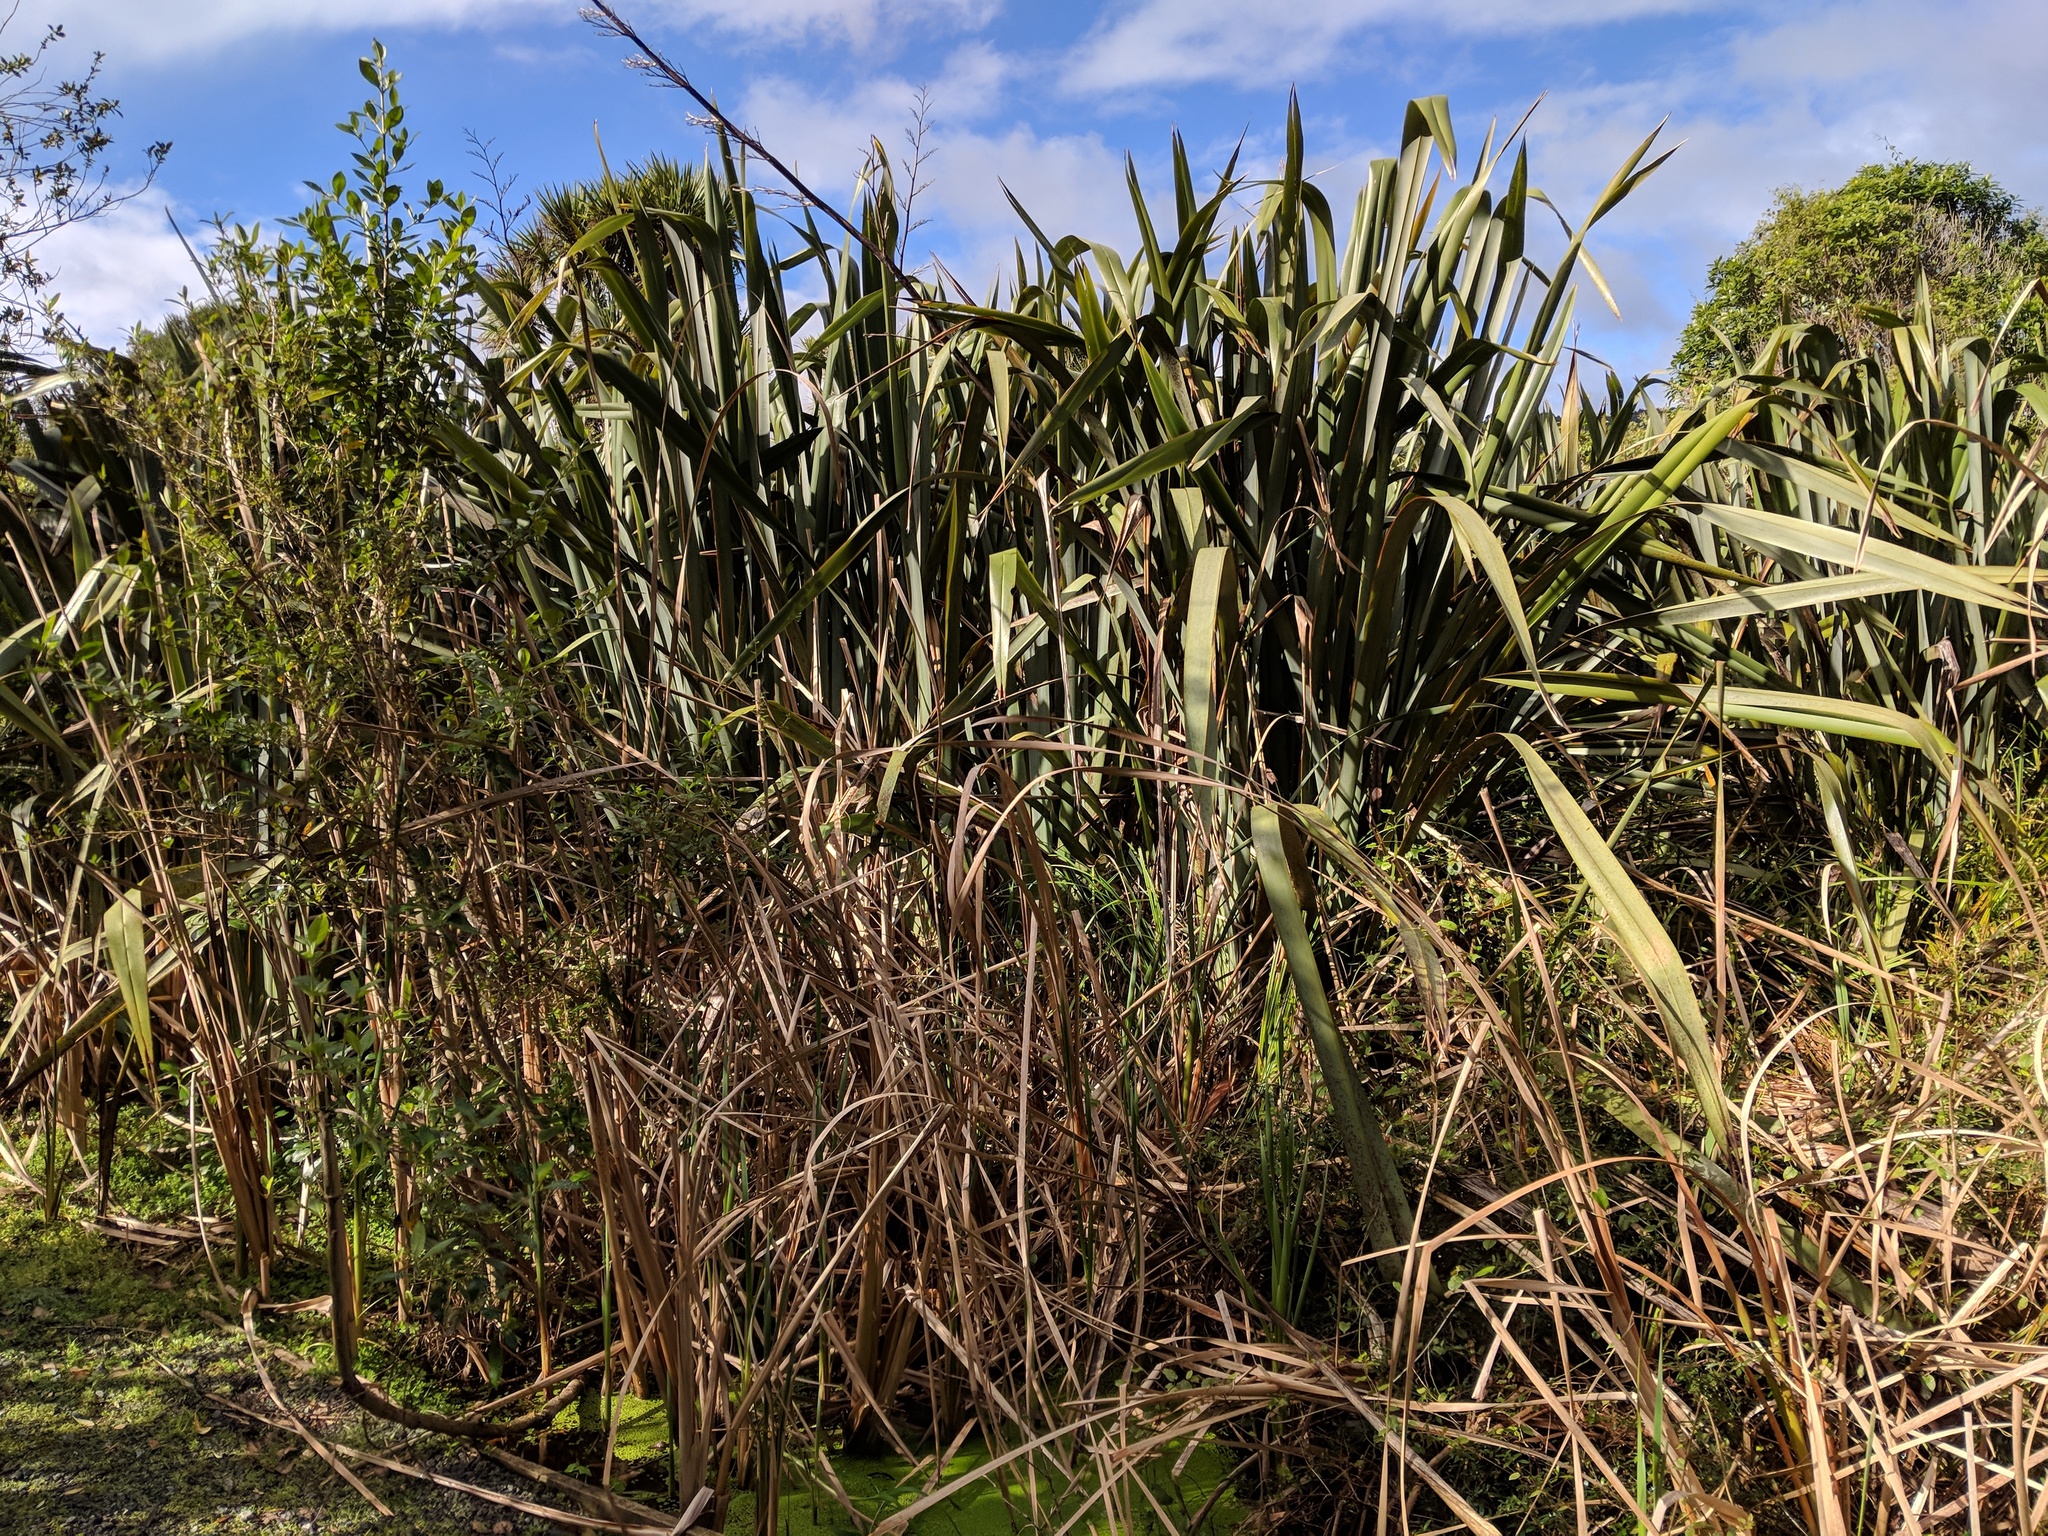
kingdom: Plantae
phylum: Tracheophyta
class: Liliopsida
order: Asparagales
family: Asphodelaceae
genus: Phormium
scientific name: Phormium tenax
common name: New zealand flax
